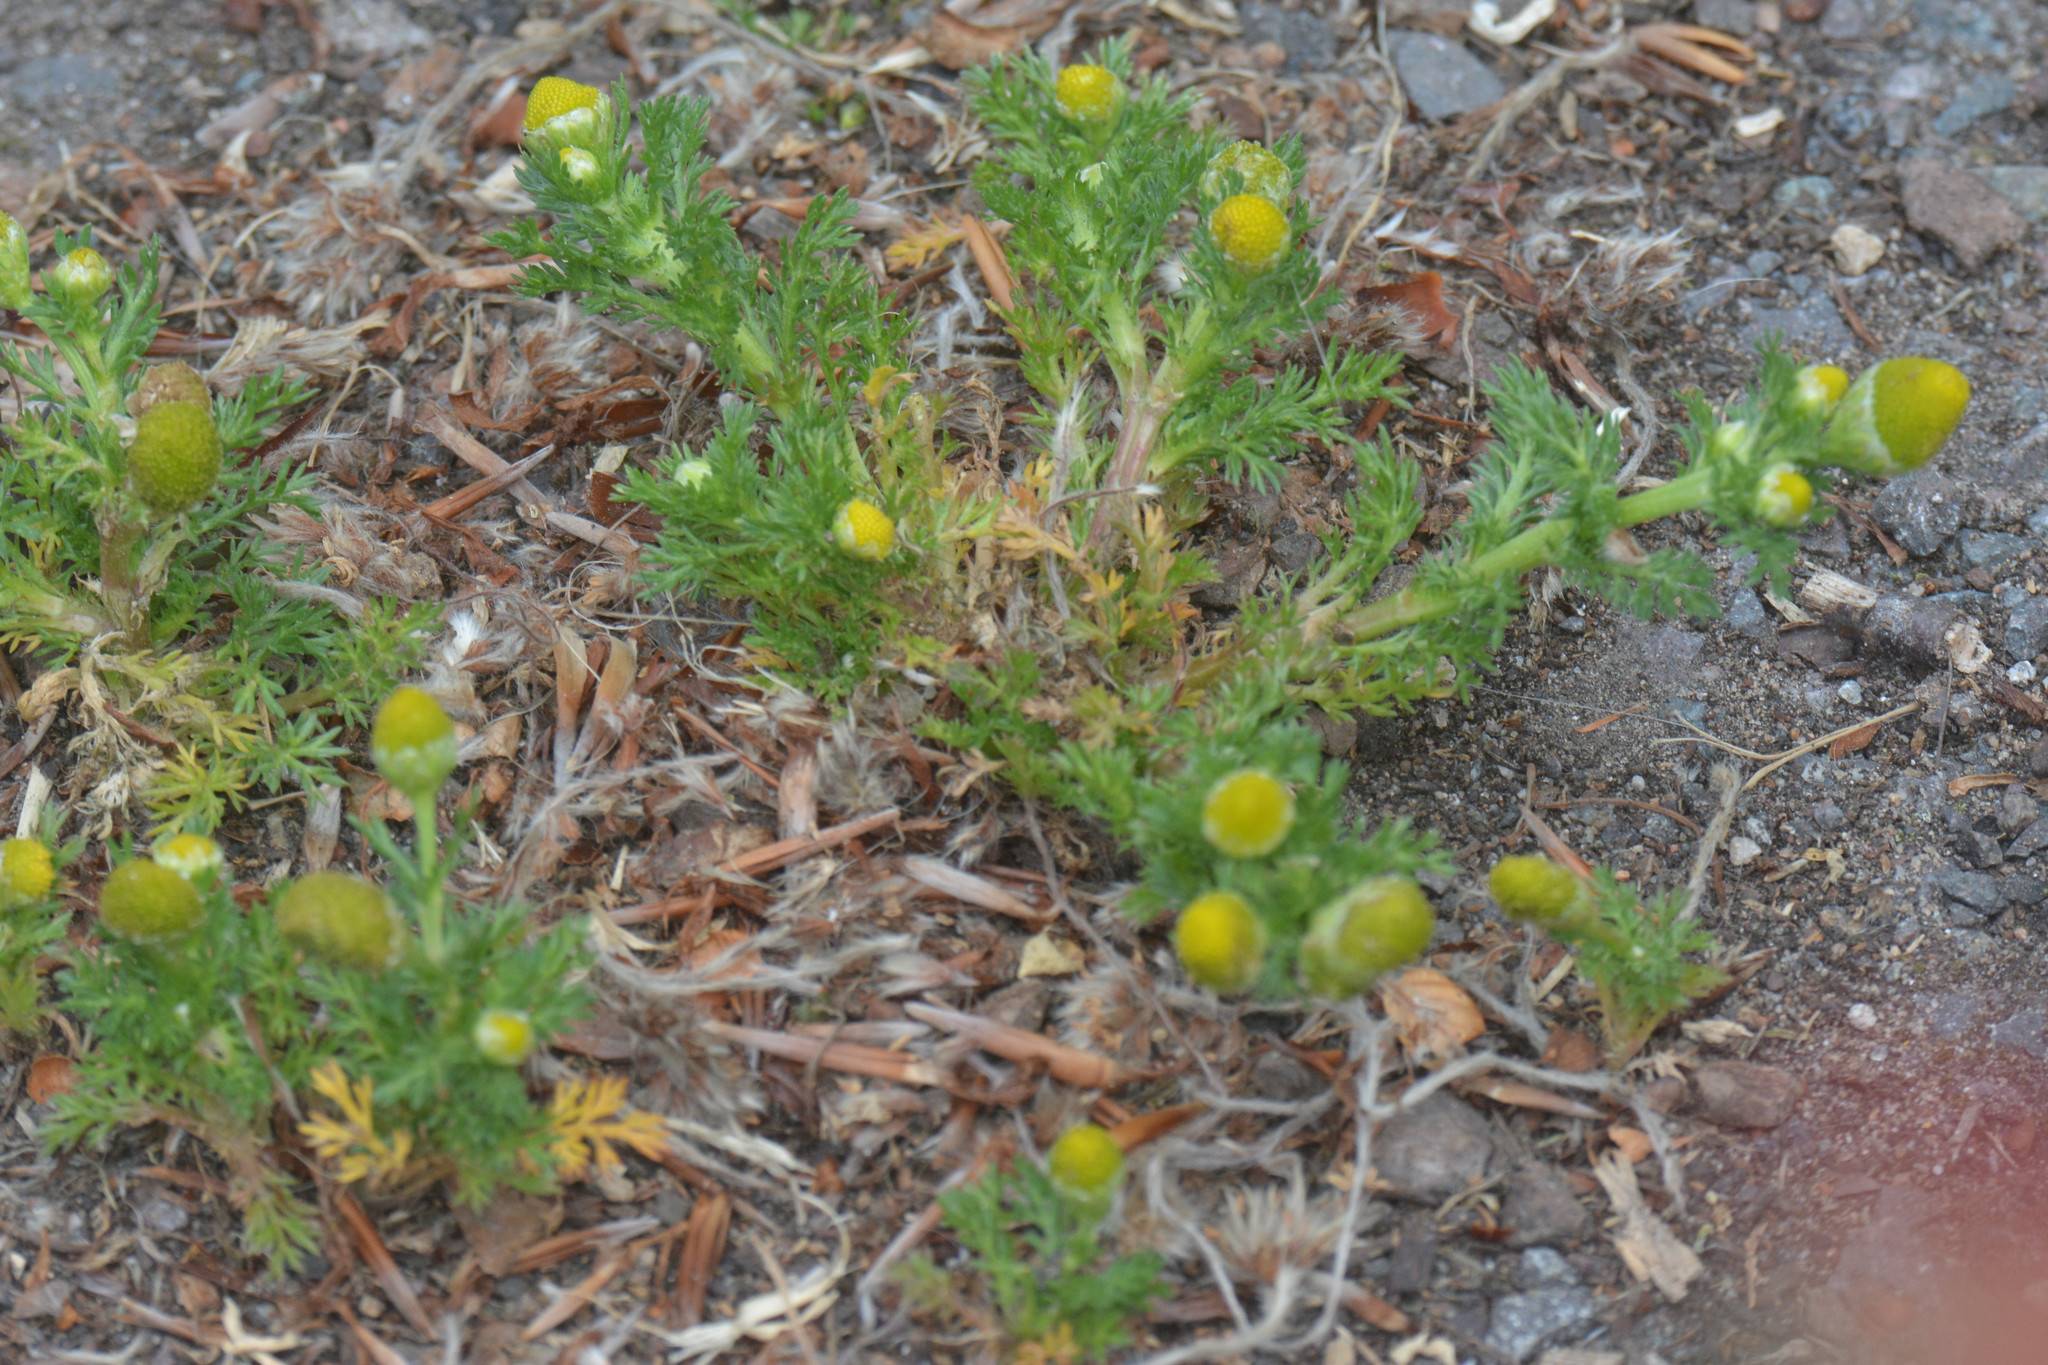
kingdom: Plantae
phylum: Tracheophyta
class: Magnoliopsida
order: Asterales
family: Asteraceae
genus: Matricaria
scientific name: Matricaria discoidea
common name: Disc mayweed
